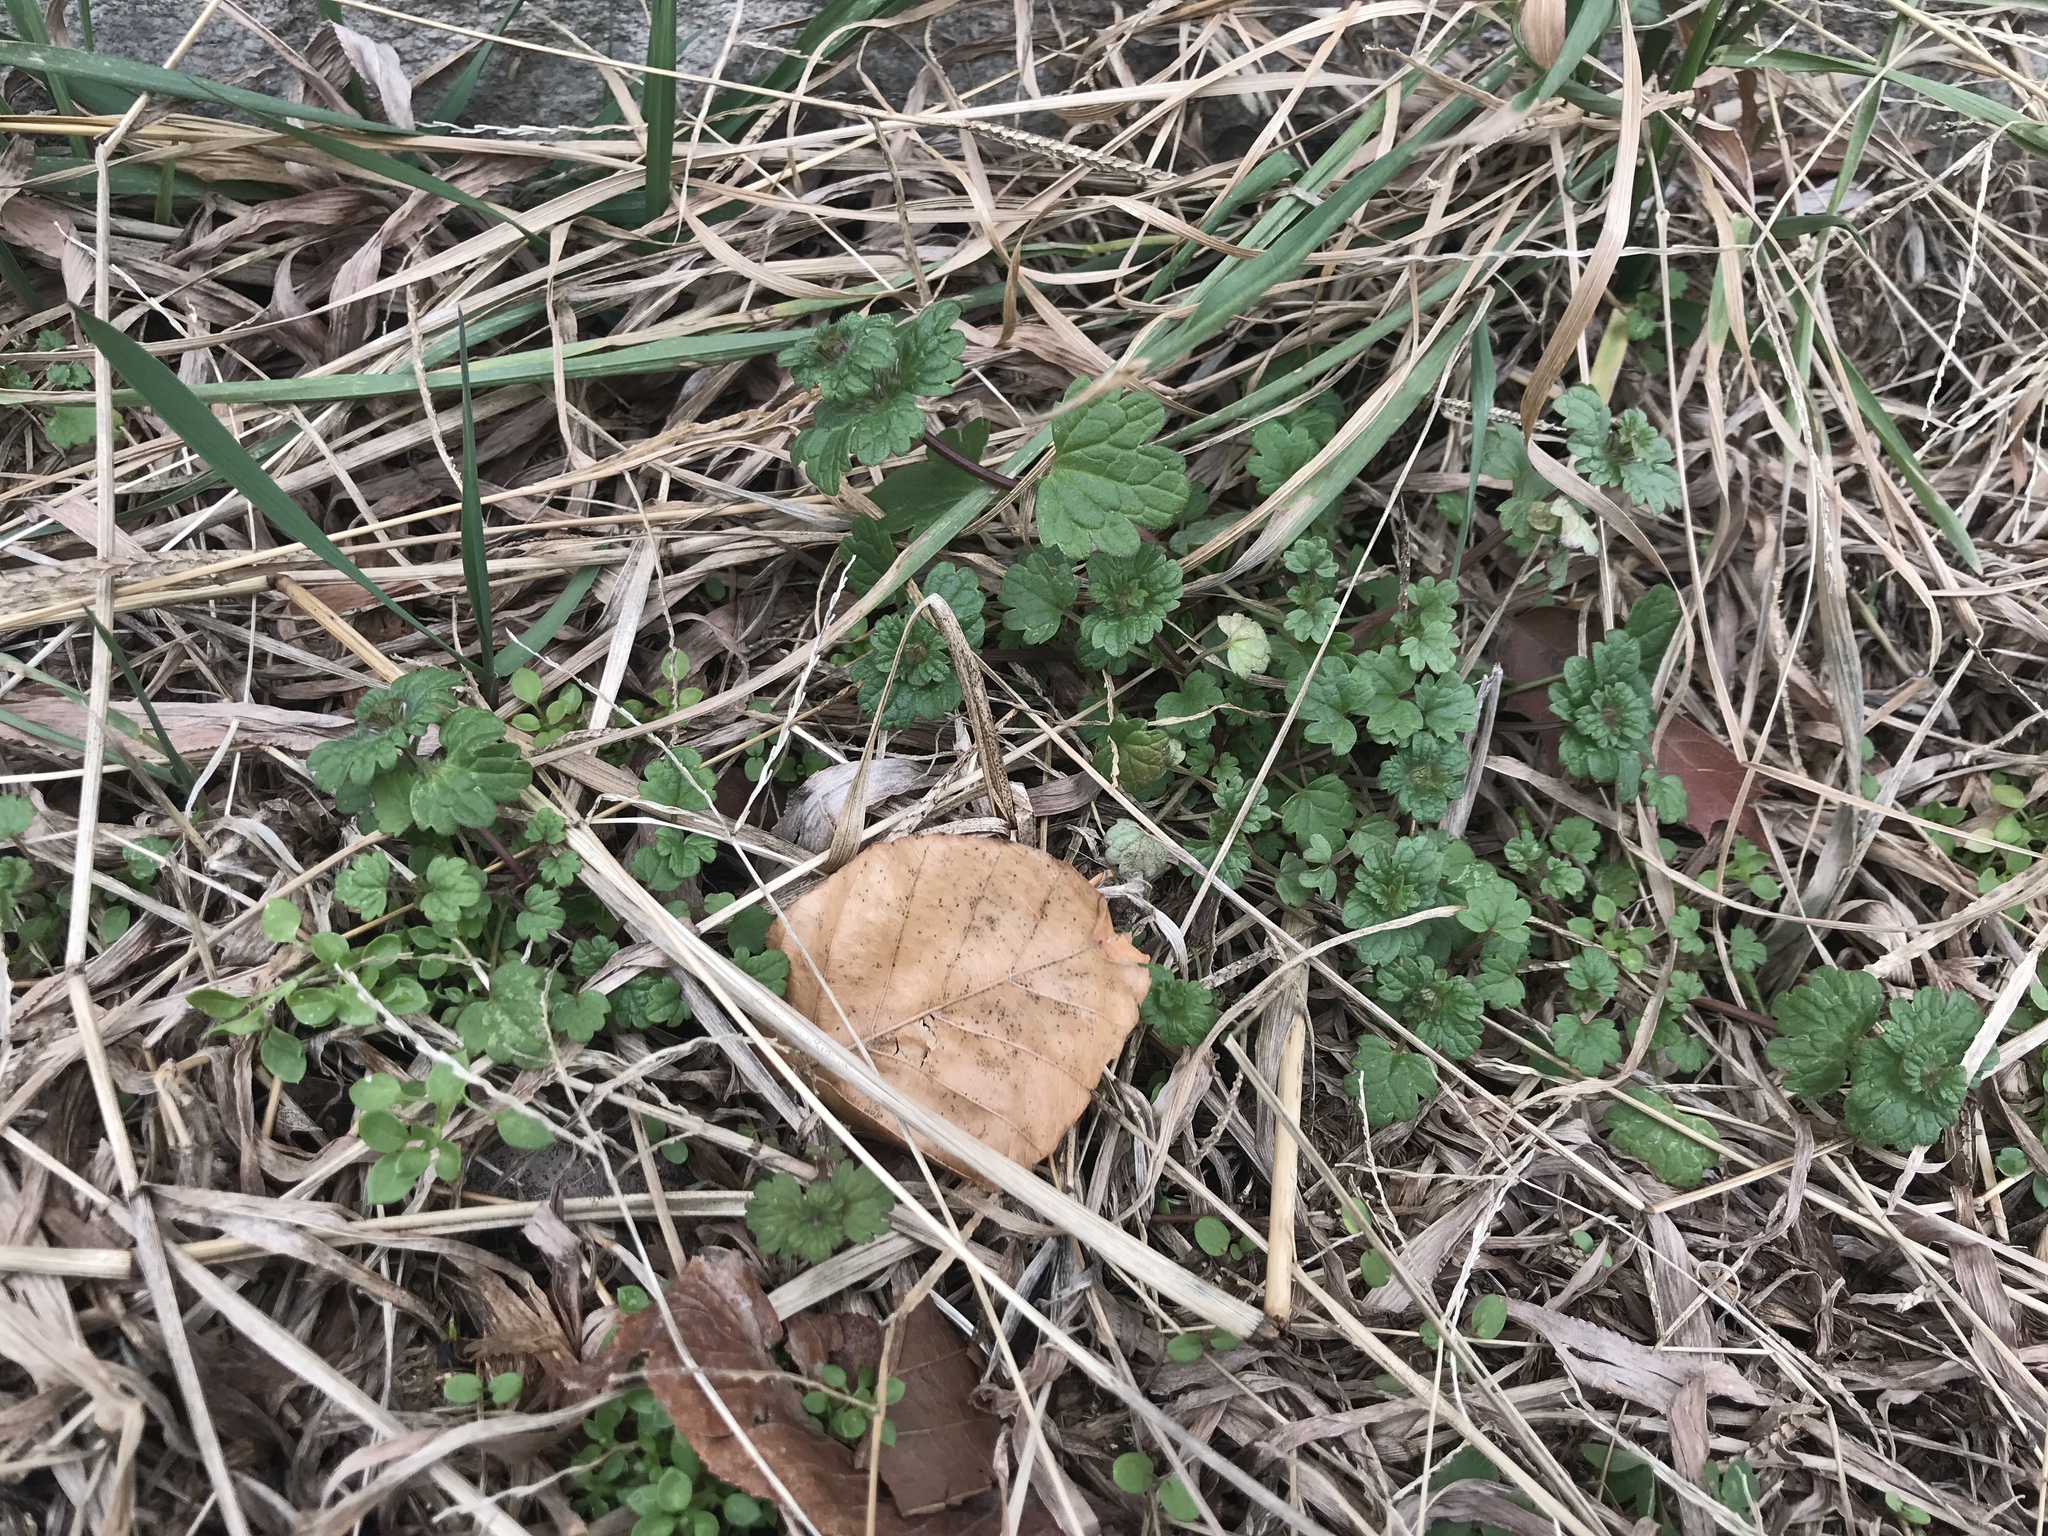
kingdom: Plantae
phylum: Tracheophyta
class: Magnoliopsida
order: Lamiales
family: Lamiaceae
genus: Lamium
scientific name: Lamium amplexicaule
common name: Henbit dead-nettle
